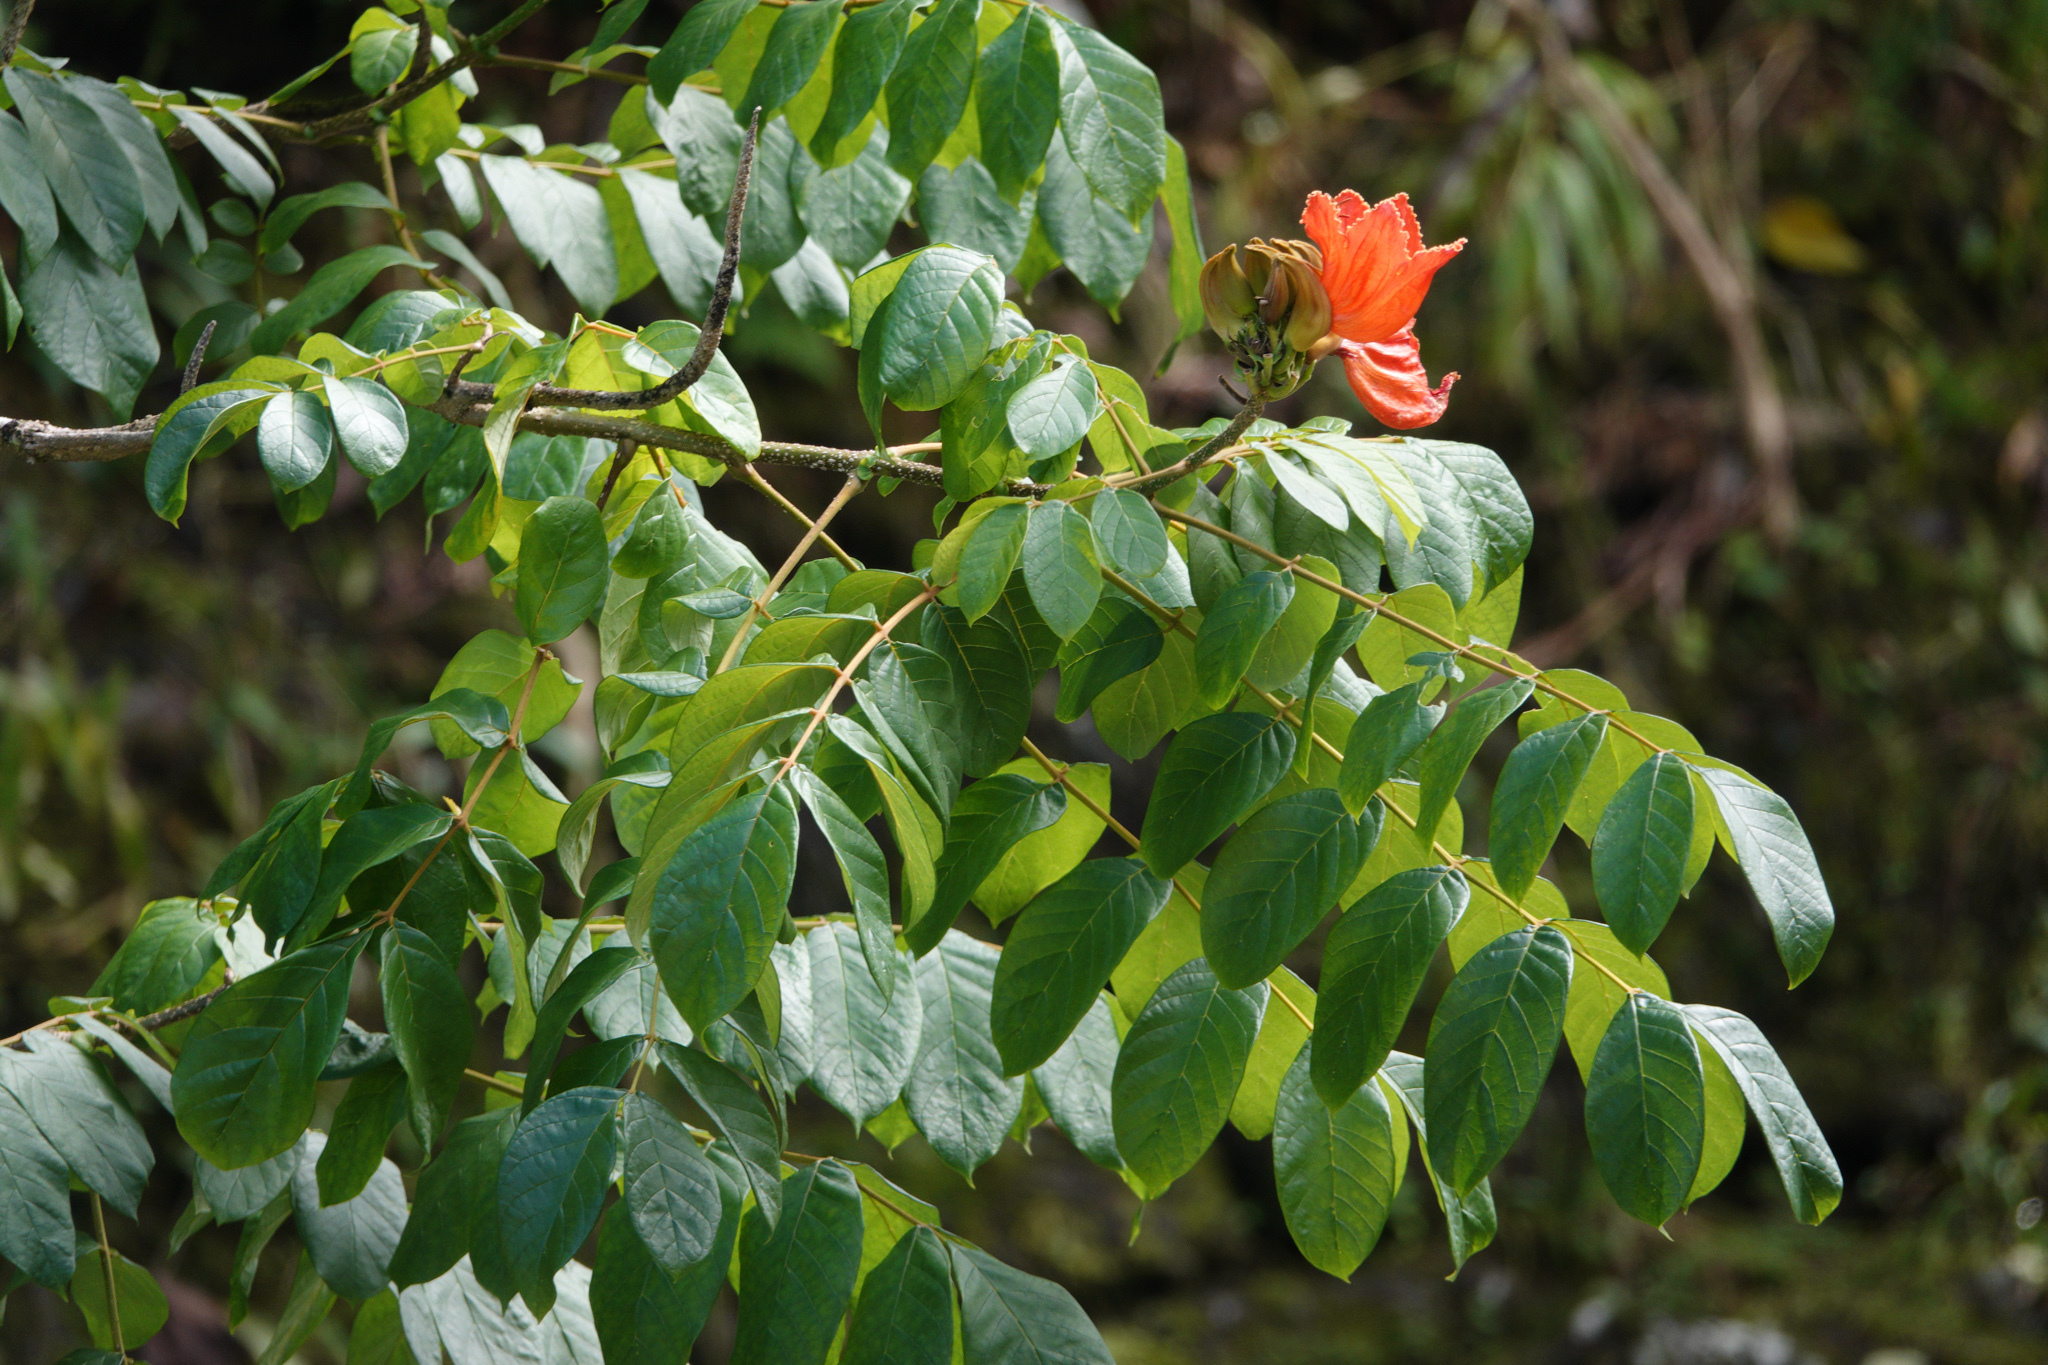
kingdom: Plantae
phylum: Tracheophyta
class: Magnoliopsida
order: Lamiales
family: Bignoniaceae
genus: Spathodea
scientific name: Spathodea campanulata
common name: African tuliptree
